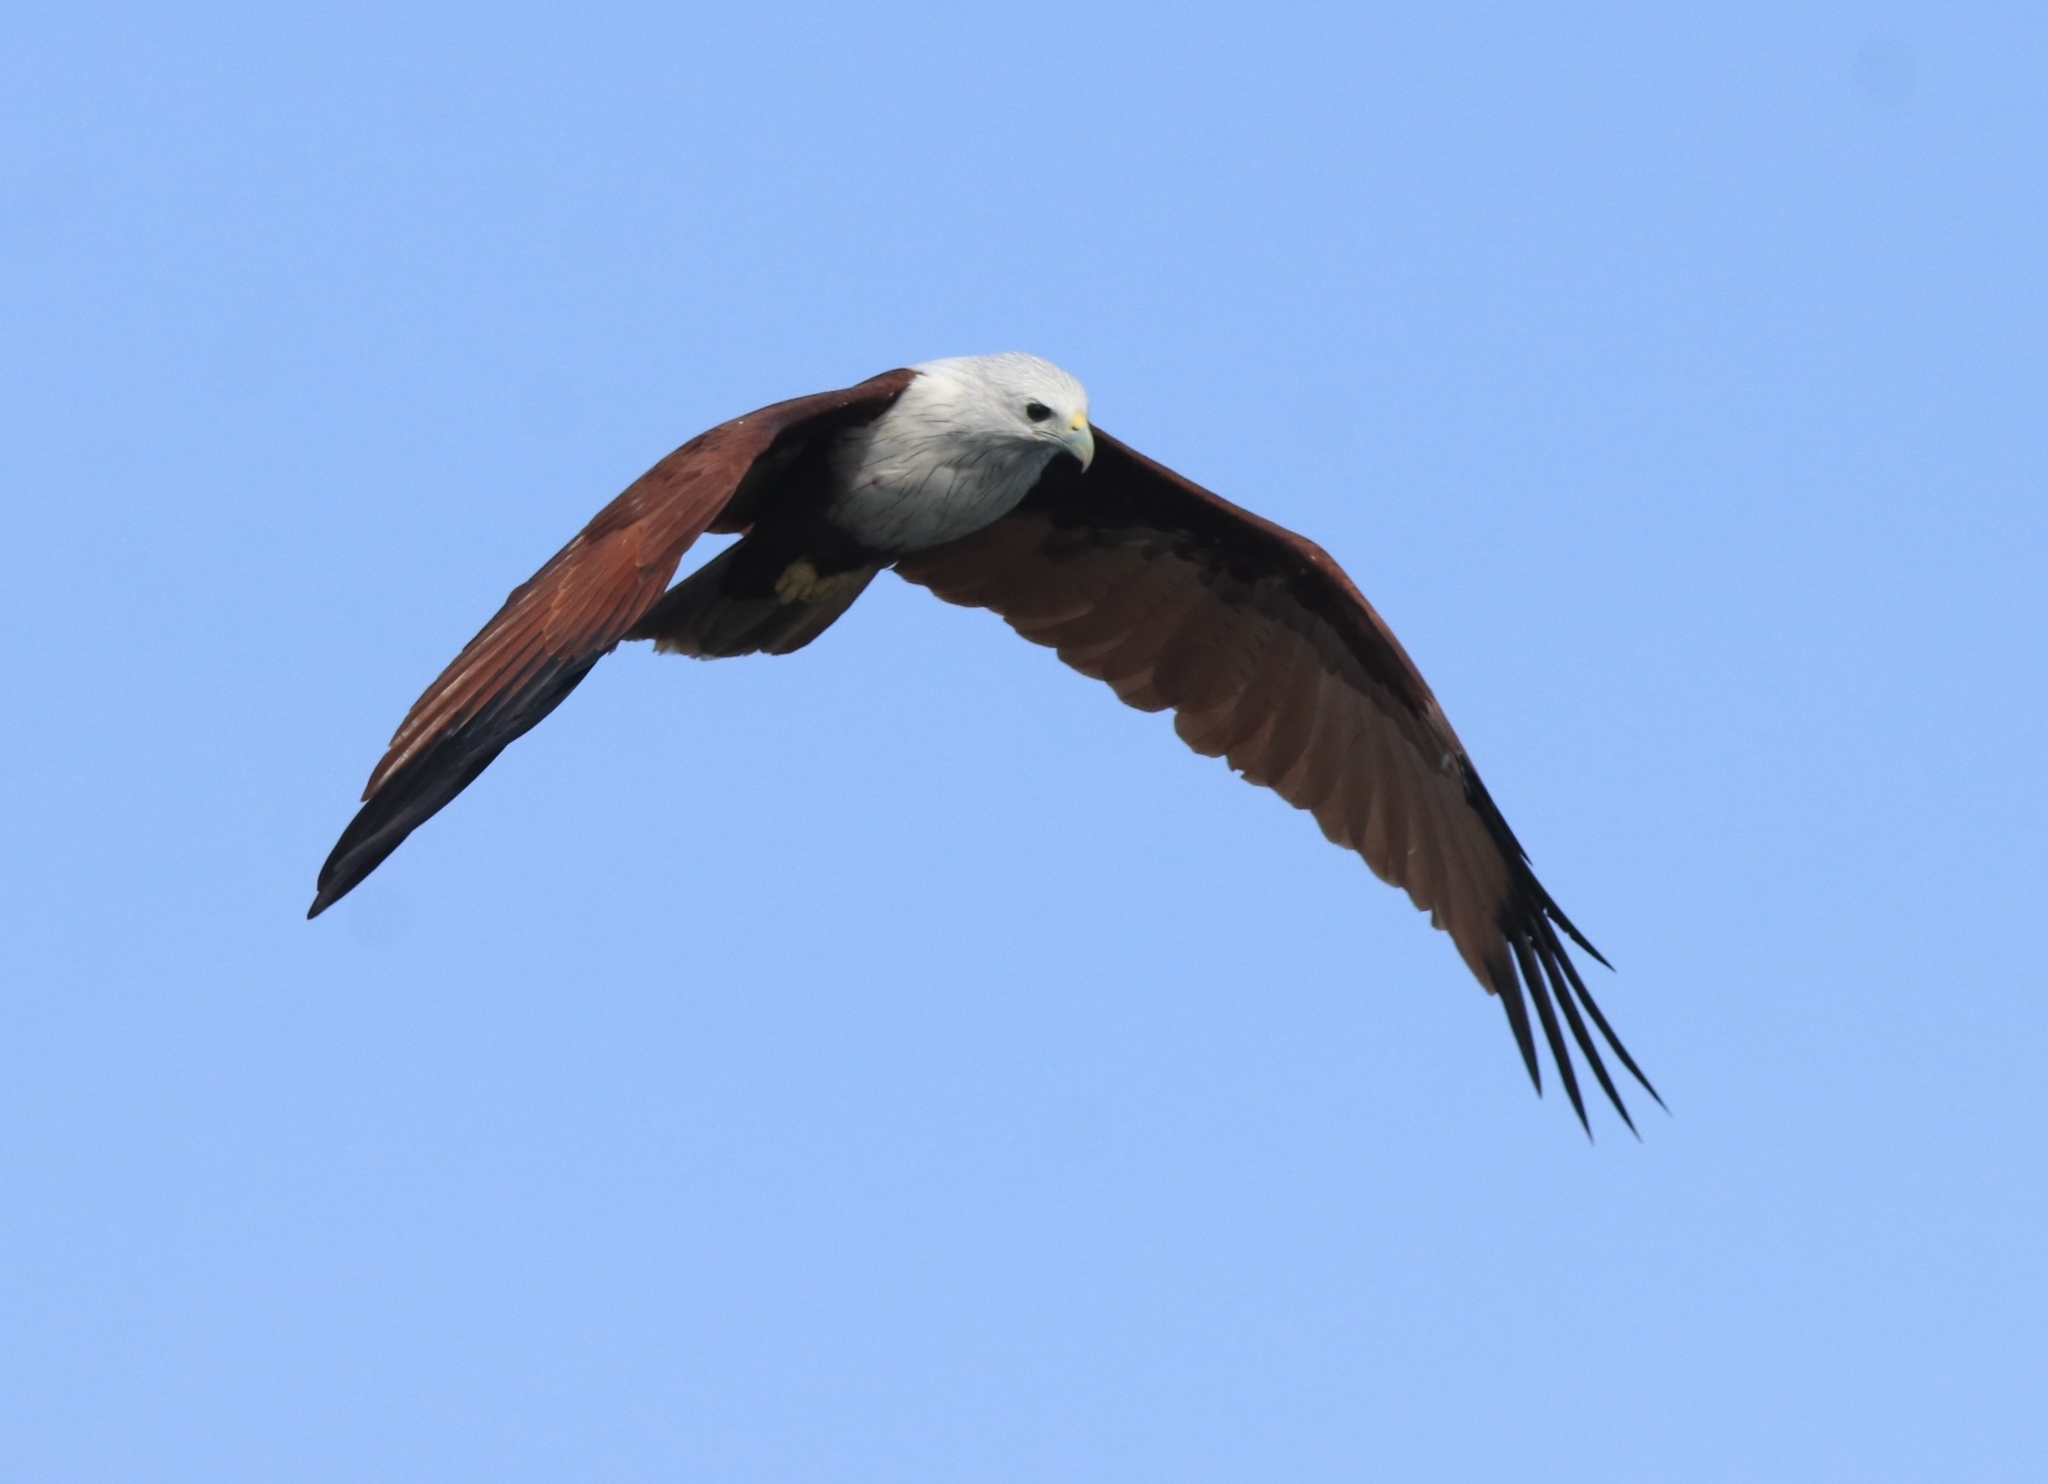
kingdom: Animalia
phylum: Chordata
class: Aves
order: Accipitriformes
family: Accipitridae
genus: Haliastur
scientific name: Haliastur indus
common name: Brahminy kite
